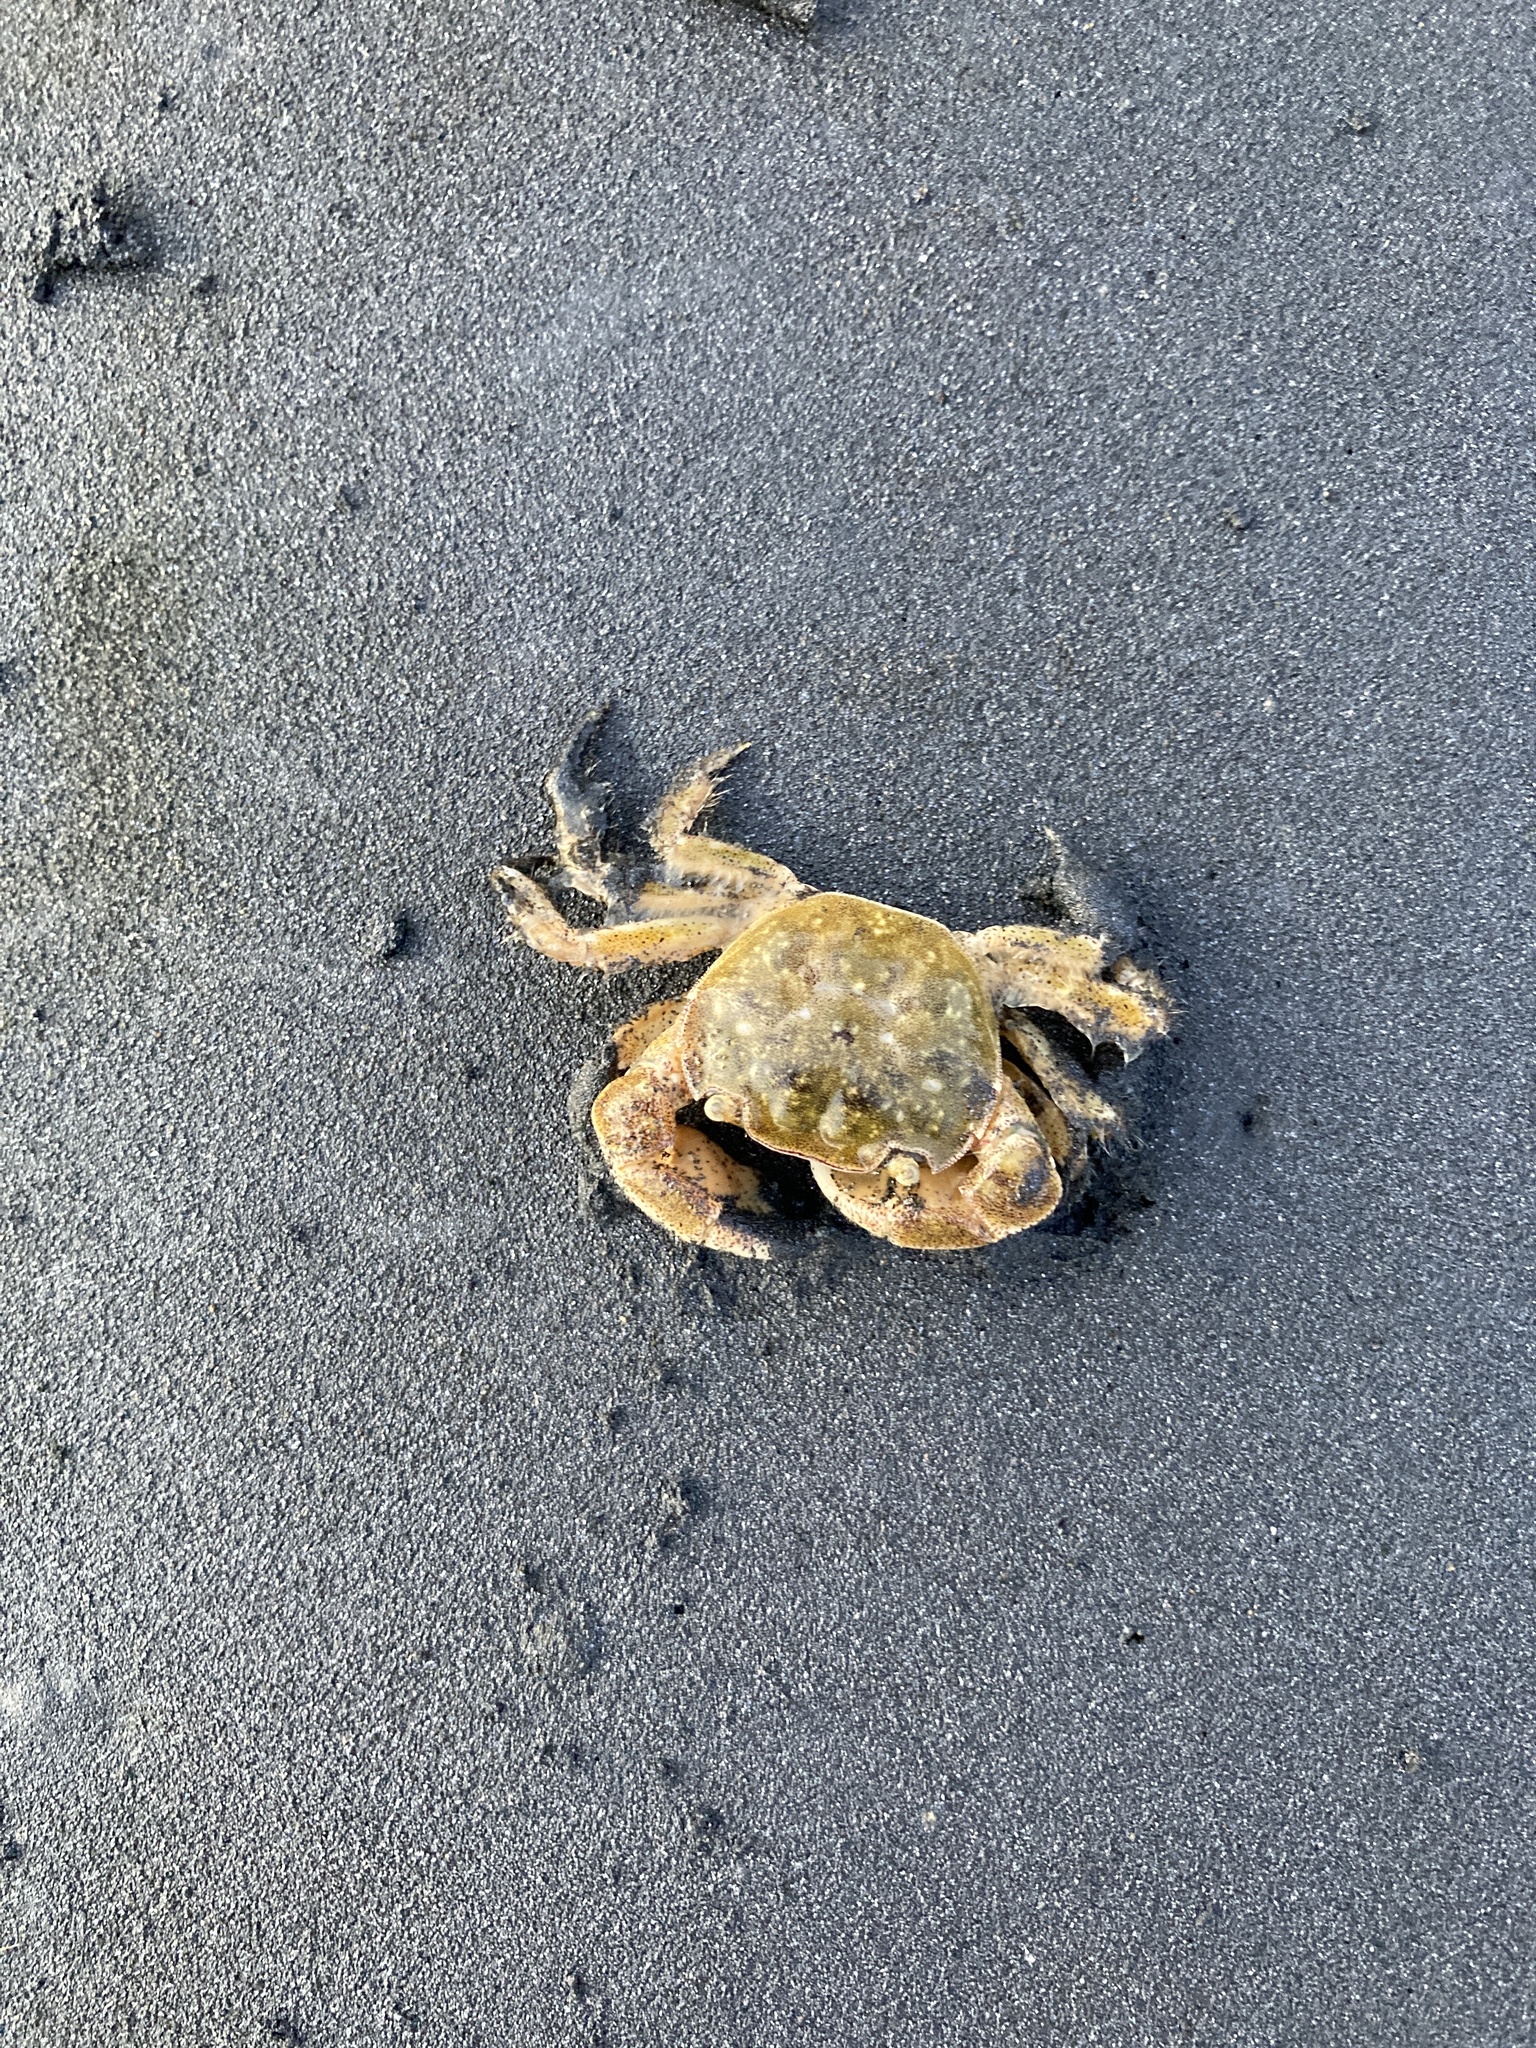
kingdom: Animalia
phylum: Arthropoda
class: Malacostraca
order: Decapoda
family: Varunidae
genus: Hemigrapsus
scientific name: Hemigrapsus crenulatus
